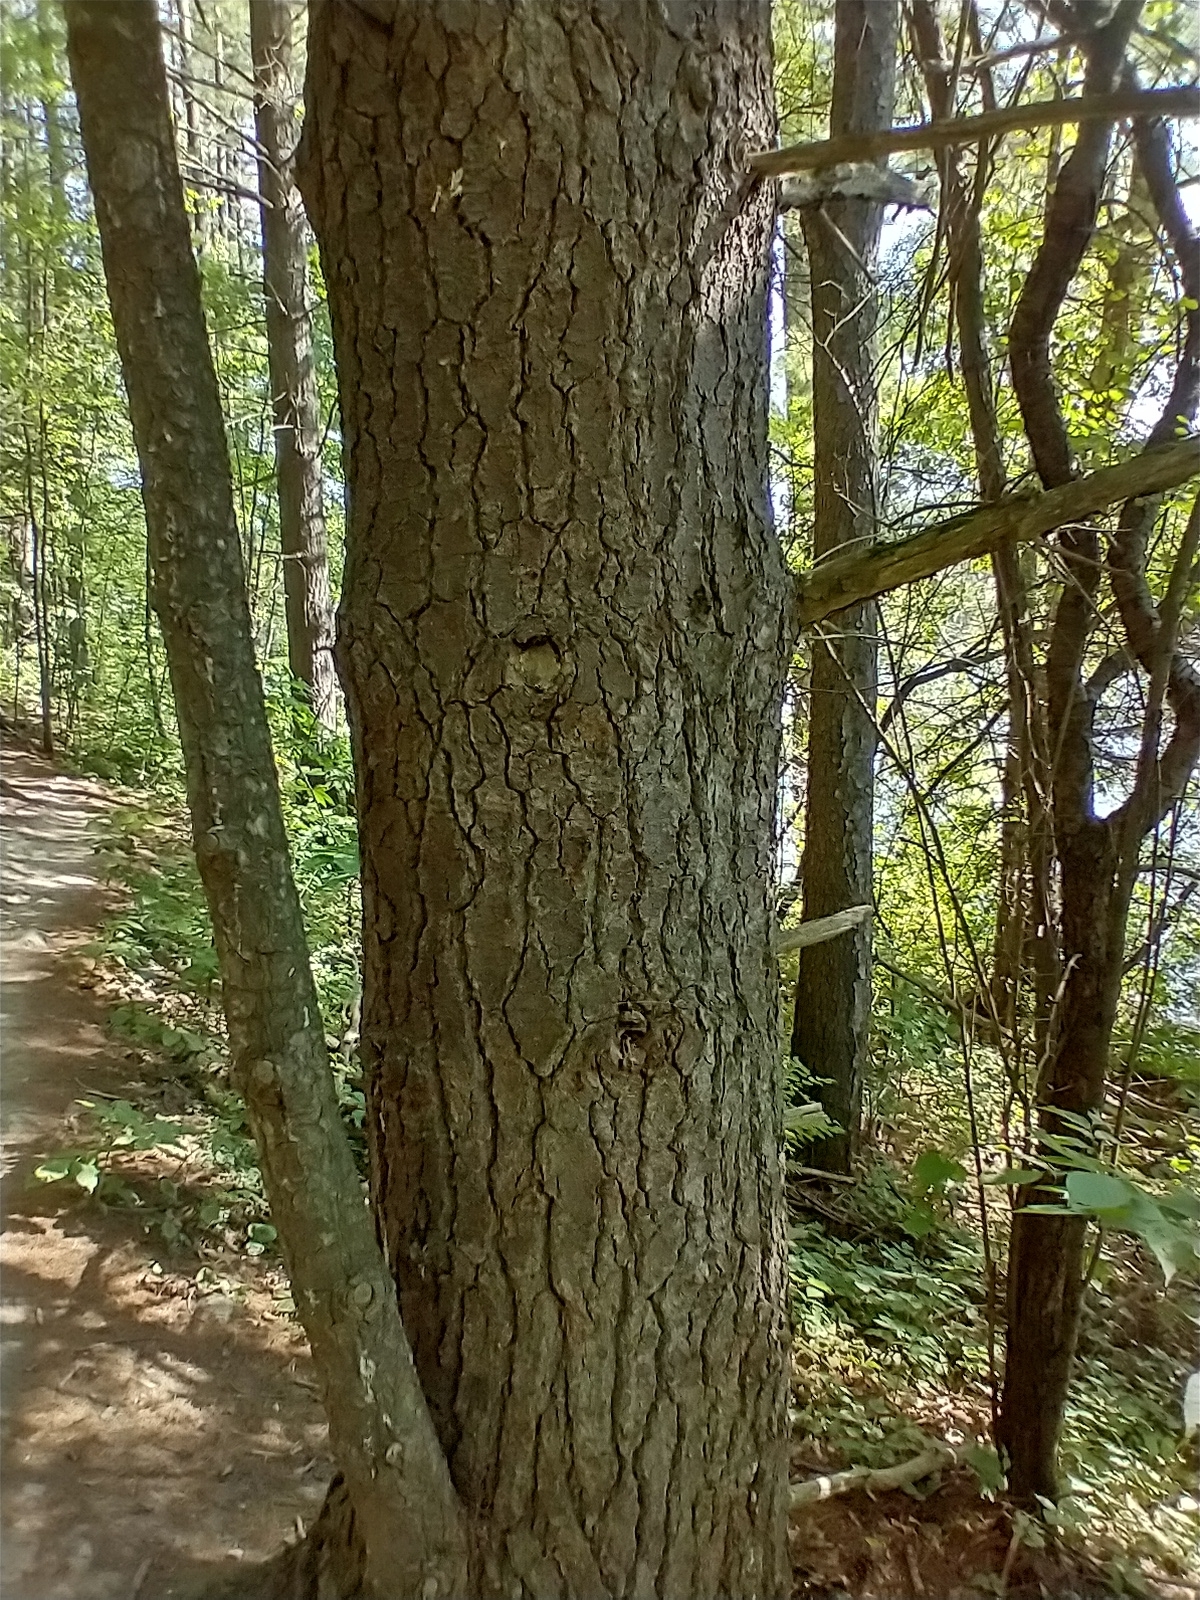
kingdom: Plantae
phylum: Tracheophyta
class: Pinopsida
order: Pinales
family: Pinaceae
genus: Pinus
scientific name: Pinus strobus
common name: Weymouth pine
